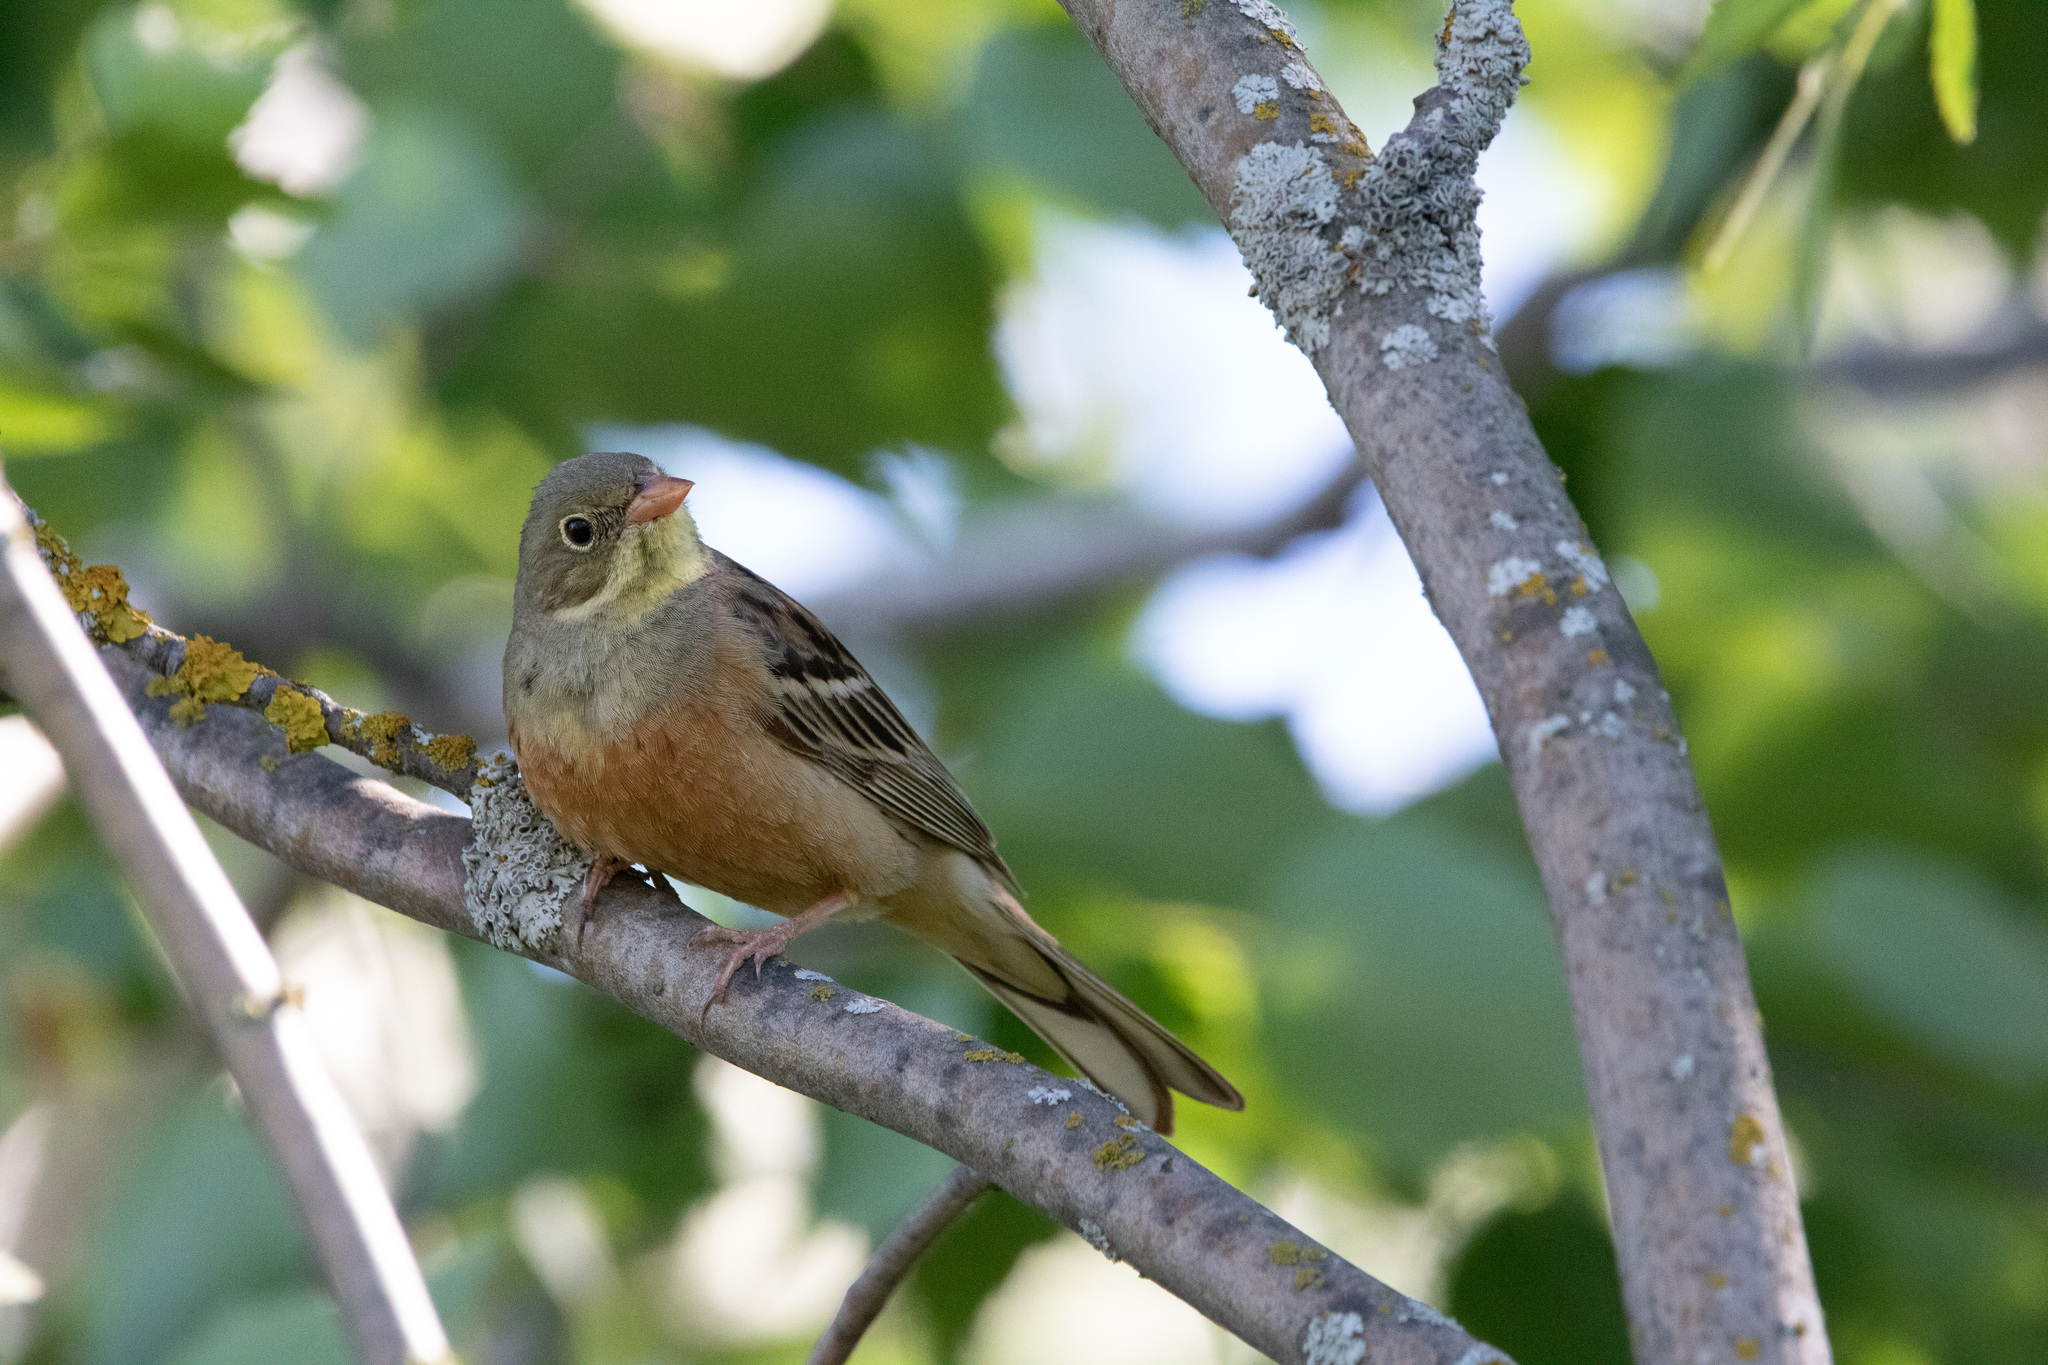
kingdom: Animalia
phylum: Chordata
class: Aves
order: Passeriformes
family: Emberizidae
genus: Emberiza
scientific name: Emberiza hortulana
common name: Ortolan bunting
